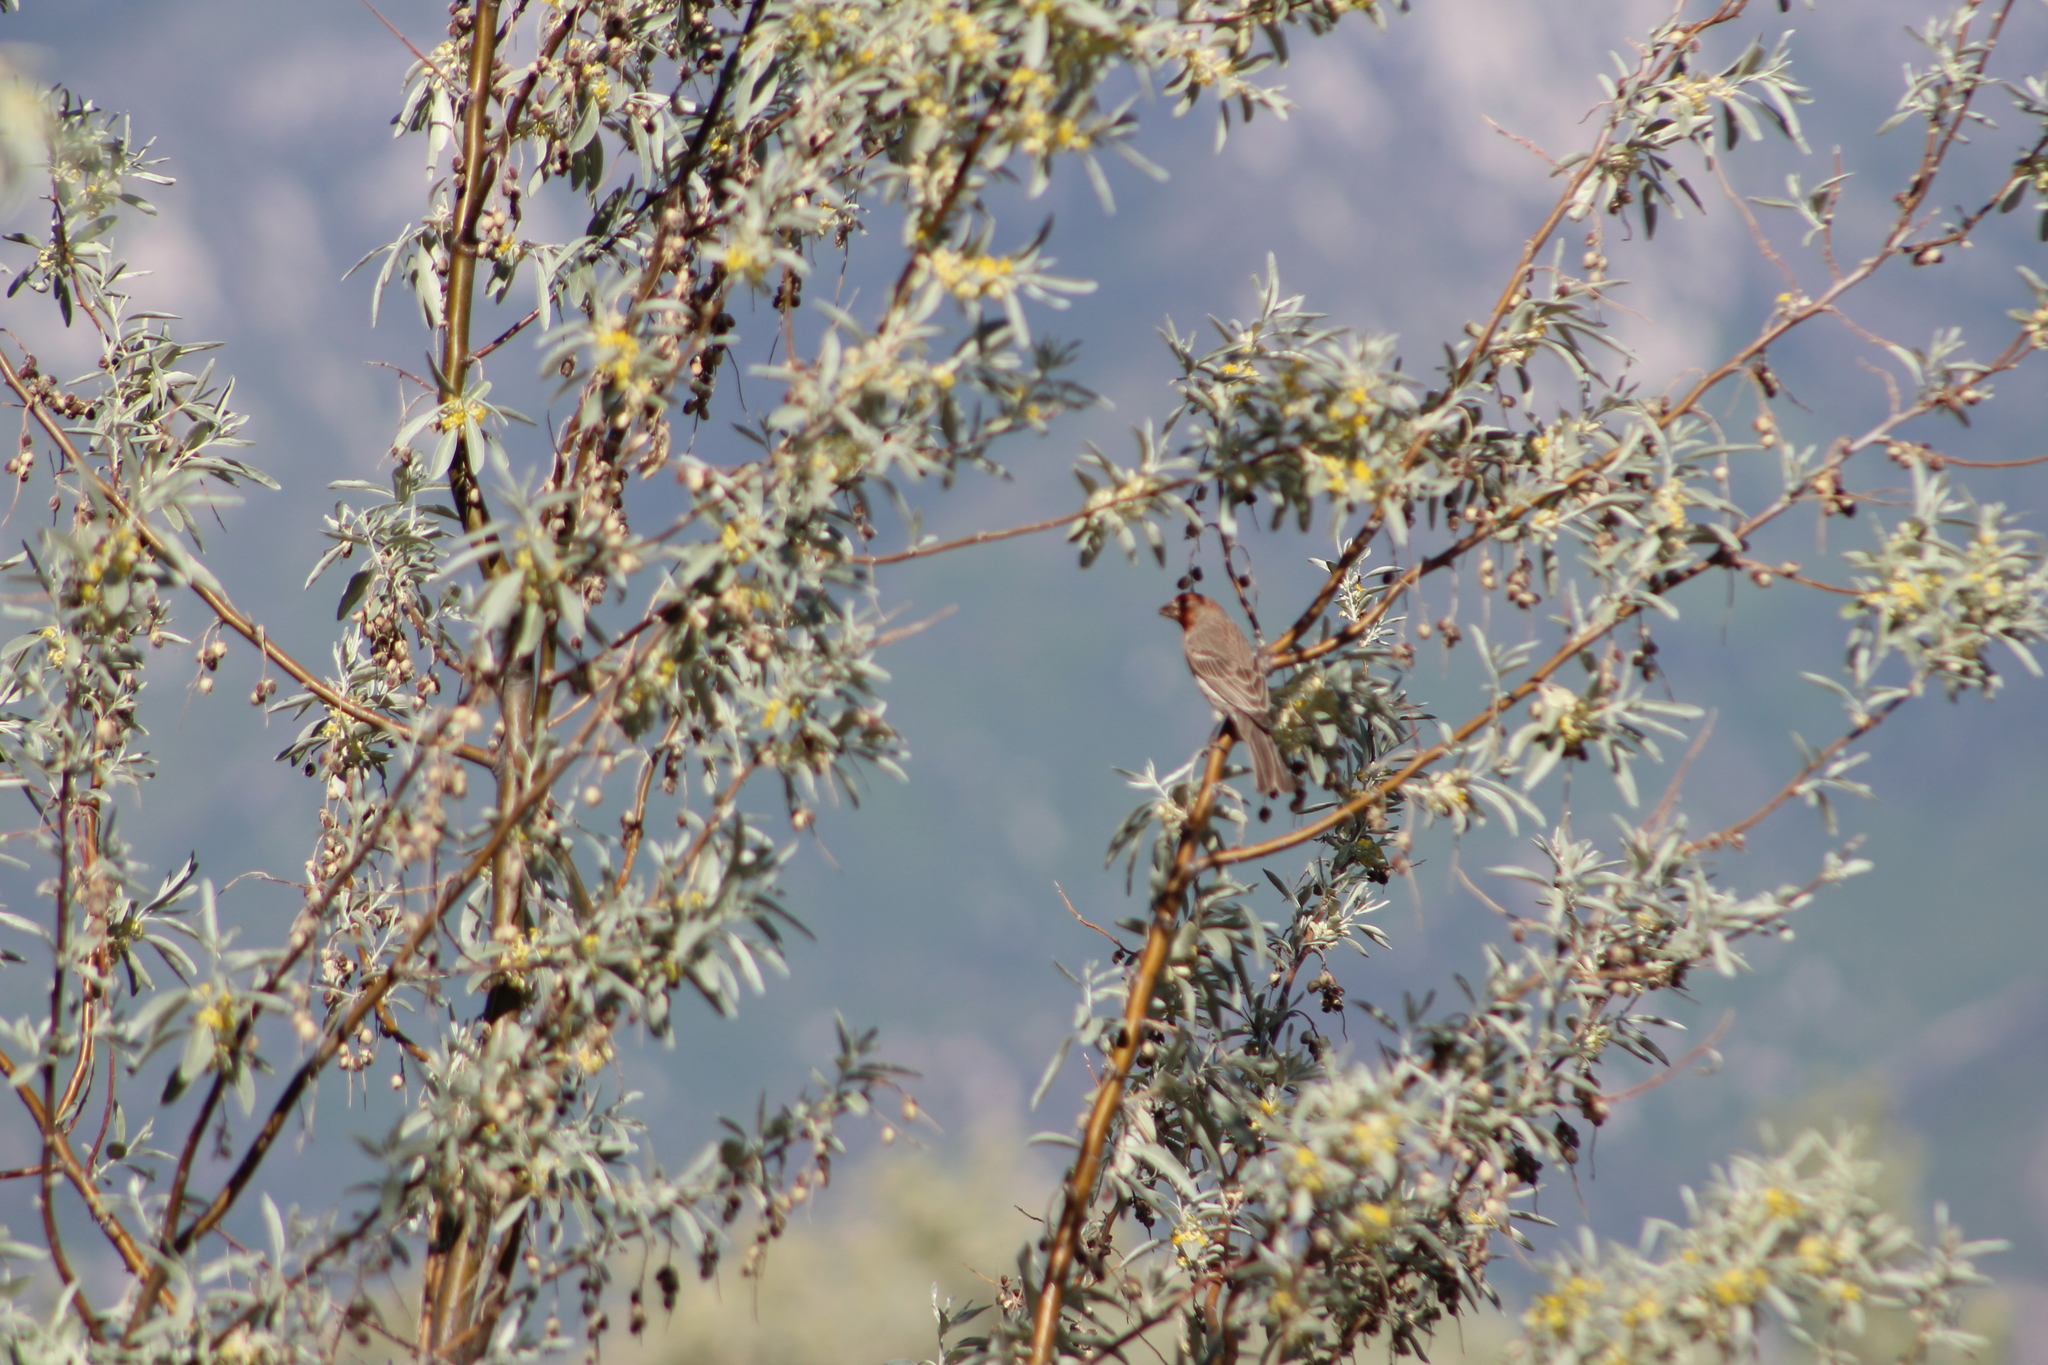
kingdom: Animalia
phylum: Chordata
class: Aves
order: Passeriformes
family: Fringillidae
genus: Haemorhous
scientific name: Haemorhous mexicanus
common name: House finch
